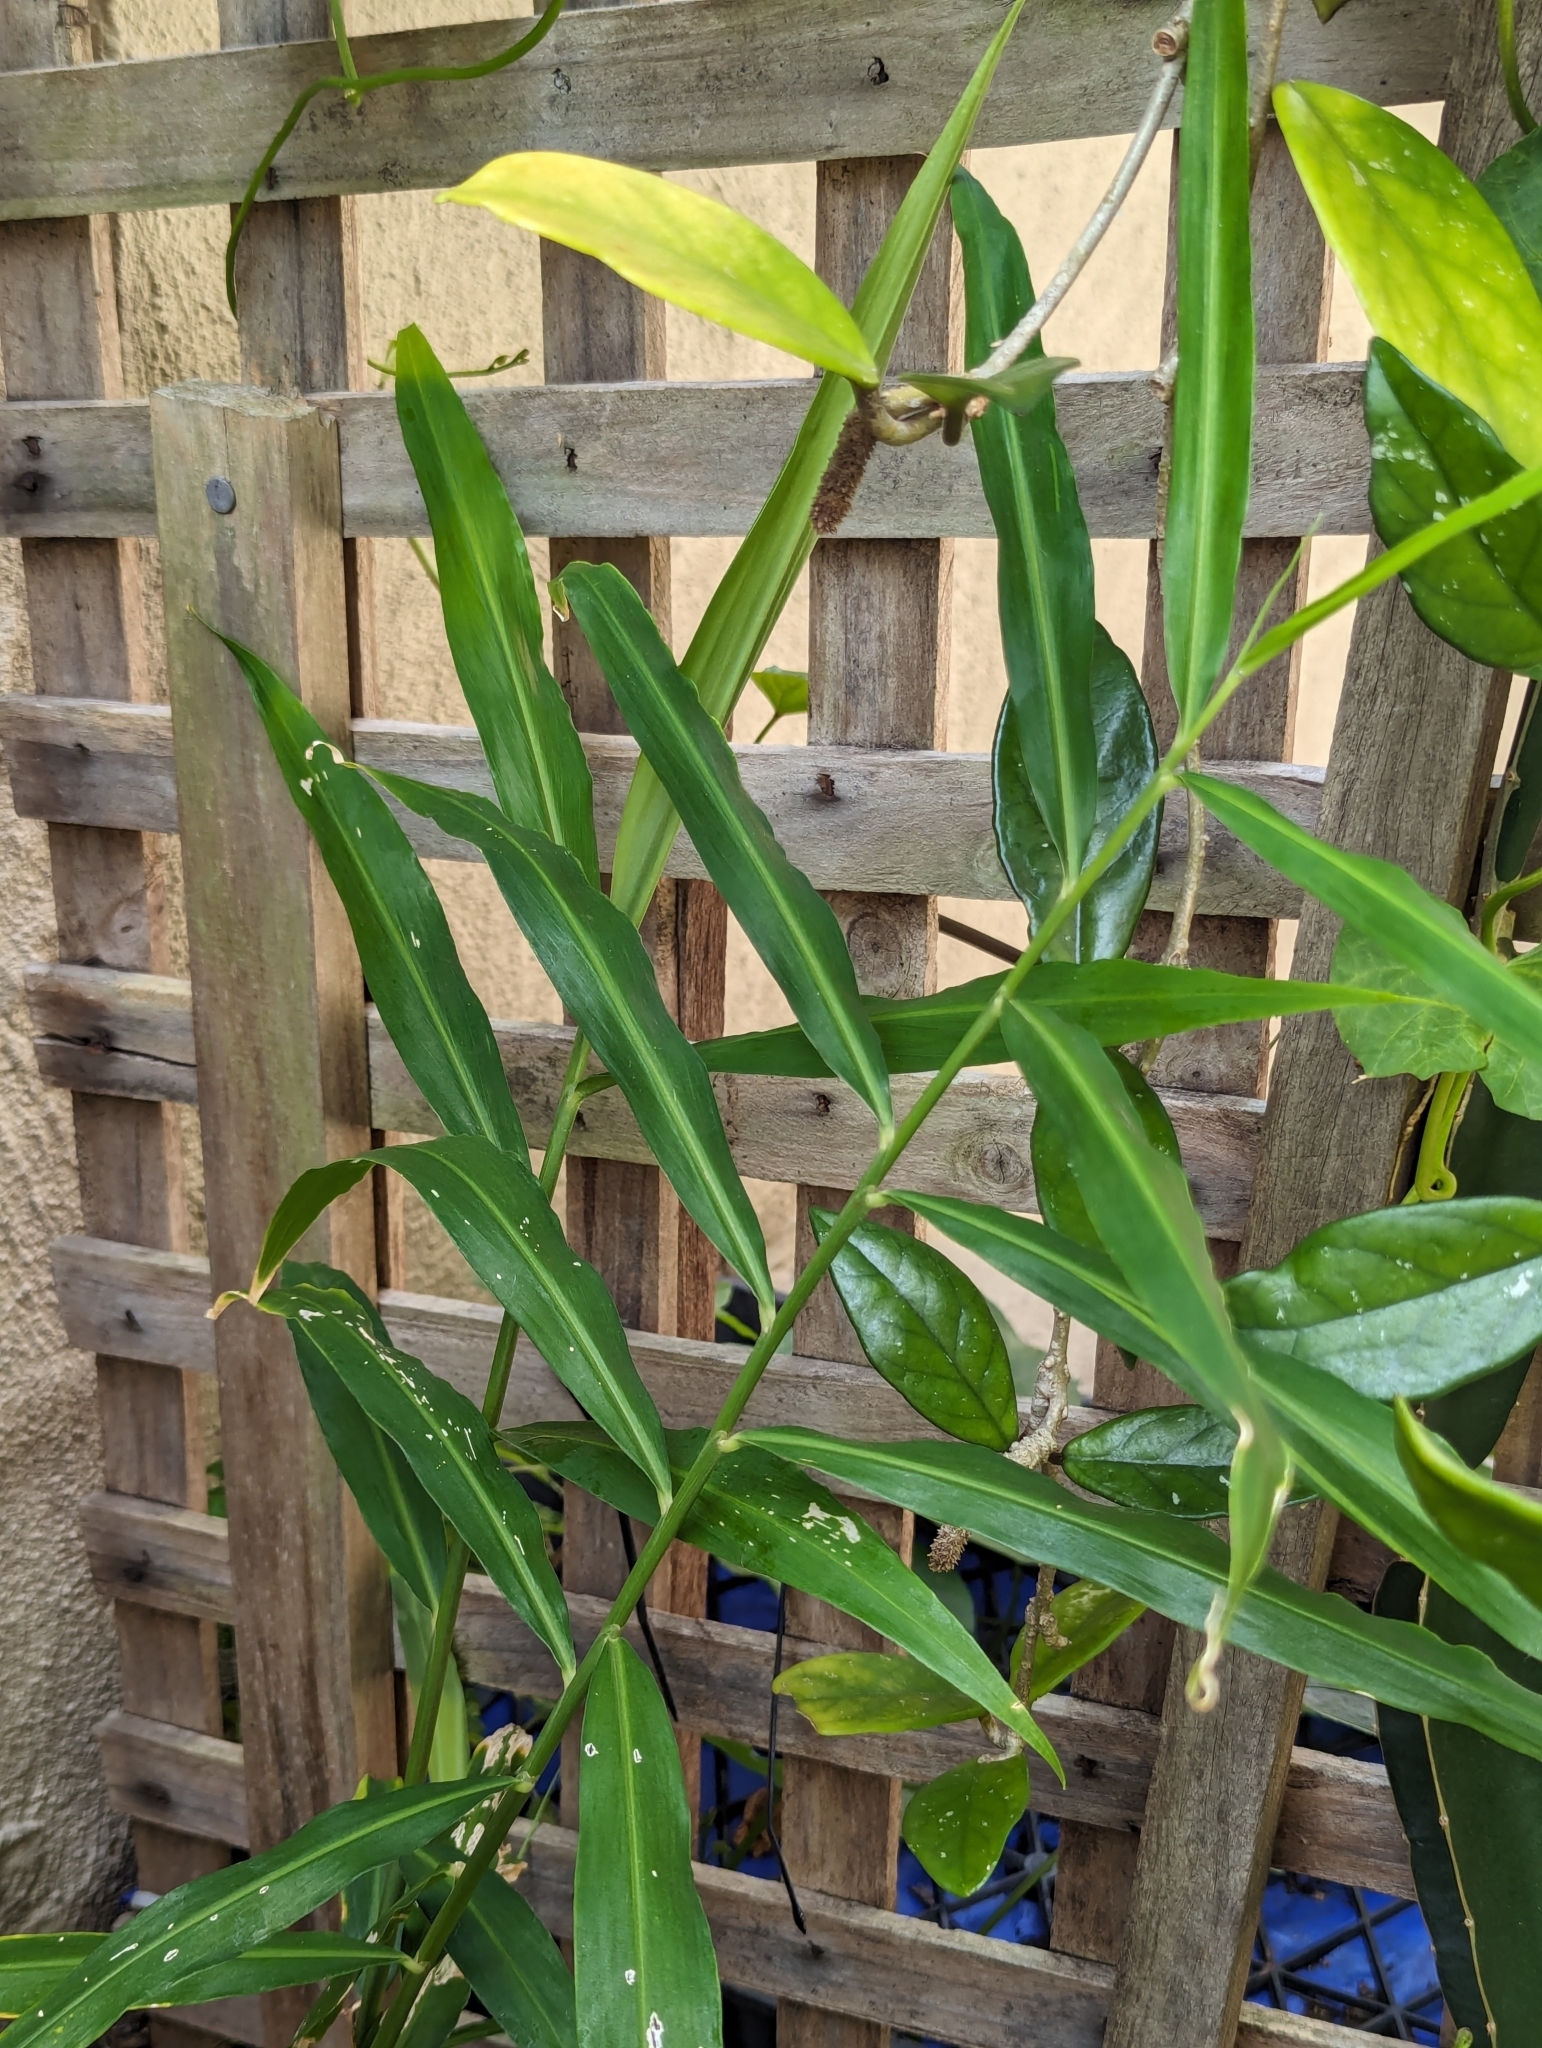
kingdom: Plantae
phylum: Tracheophyta
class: Liliopsida
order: Zingiberales
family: Zingiberaceae
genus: Zingiber
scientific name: Zingiber officinale
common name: Ginger
